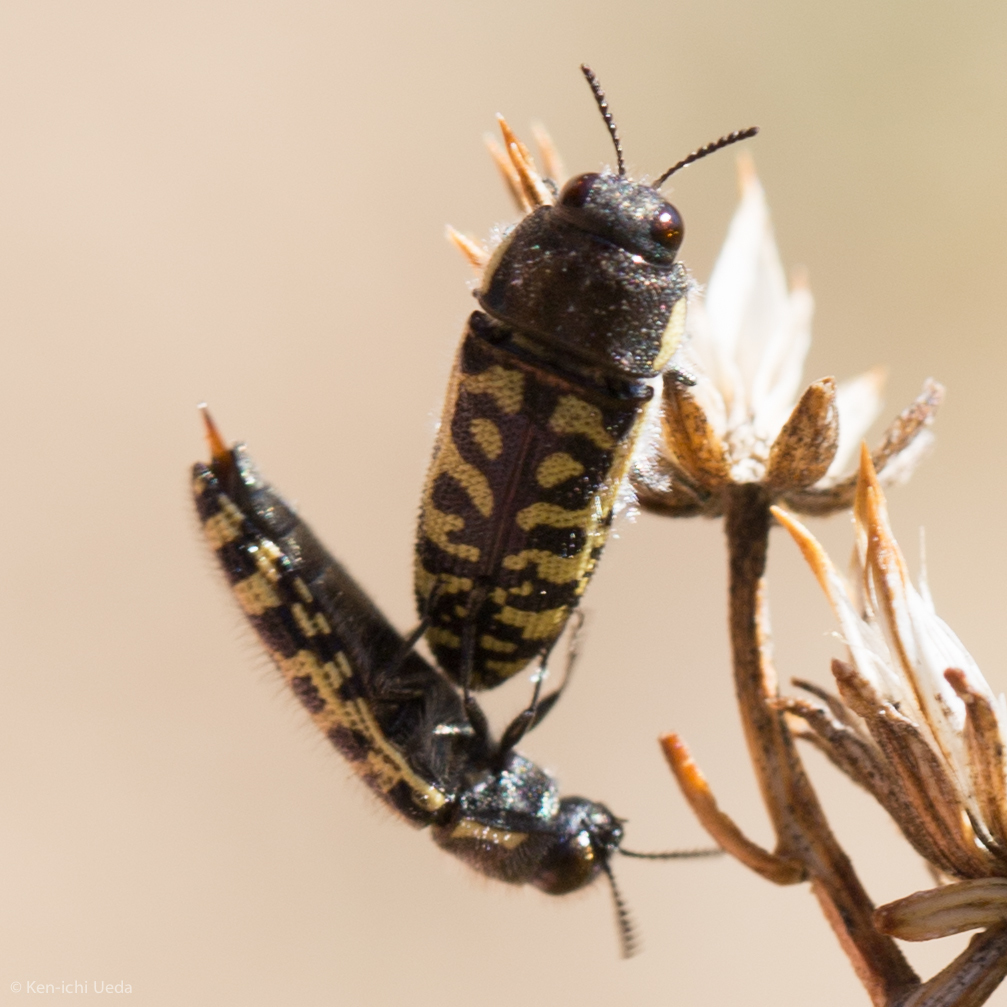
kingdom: Animalia
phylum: Arthropoda
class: Insecta
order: Coleoptera
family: Buprestidae
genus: Acmaeodera
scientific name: Acmaeodera solitaria
